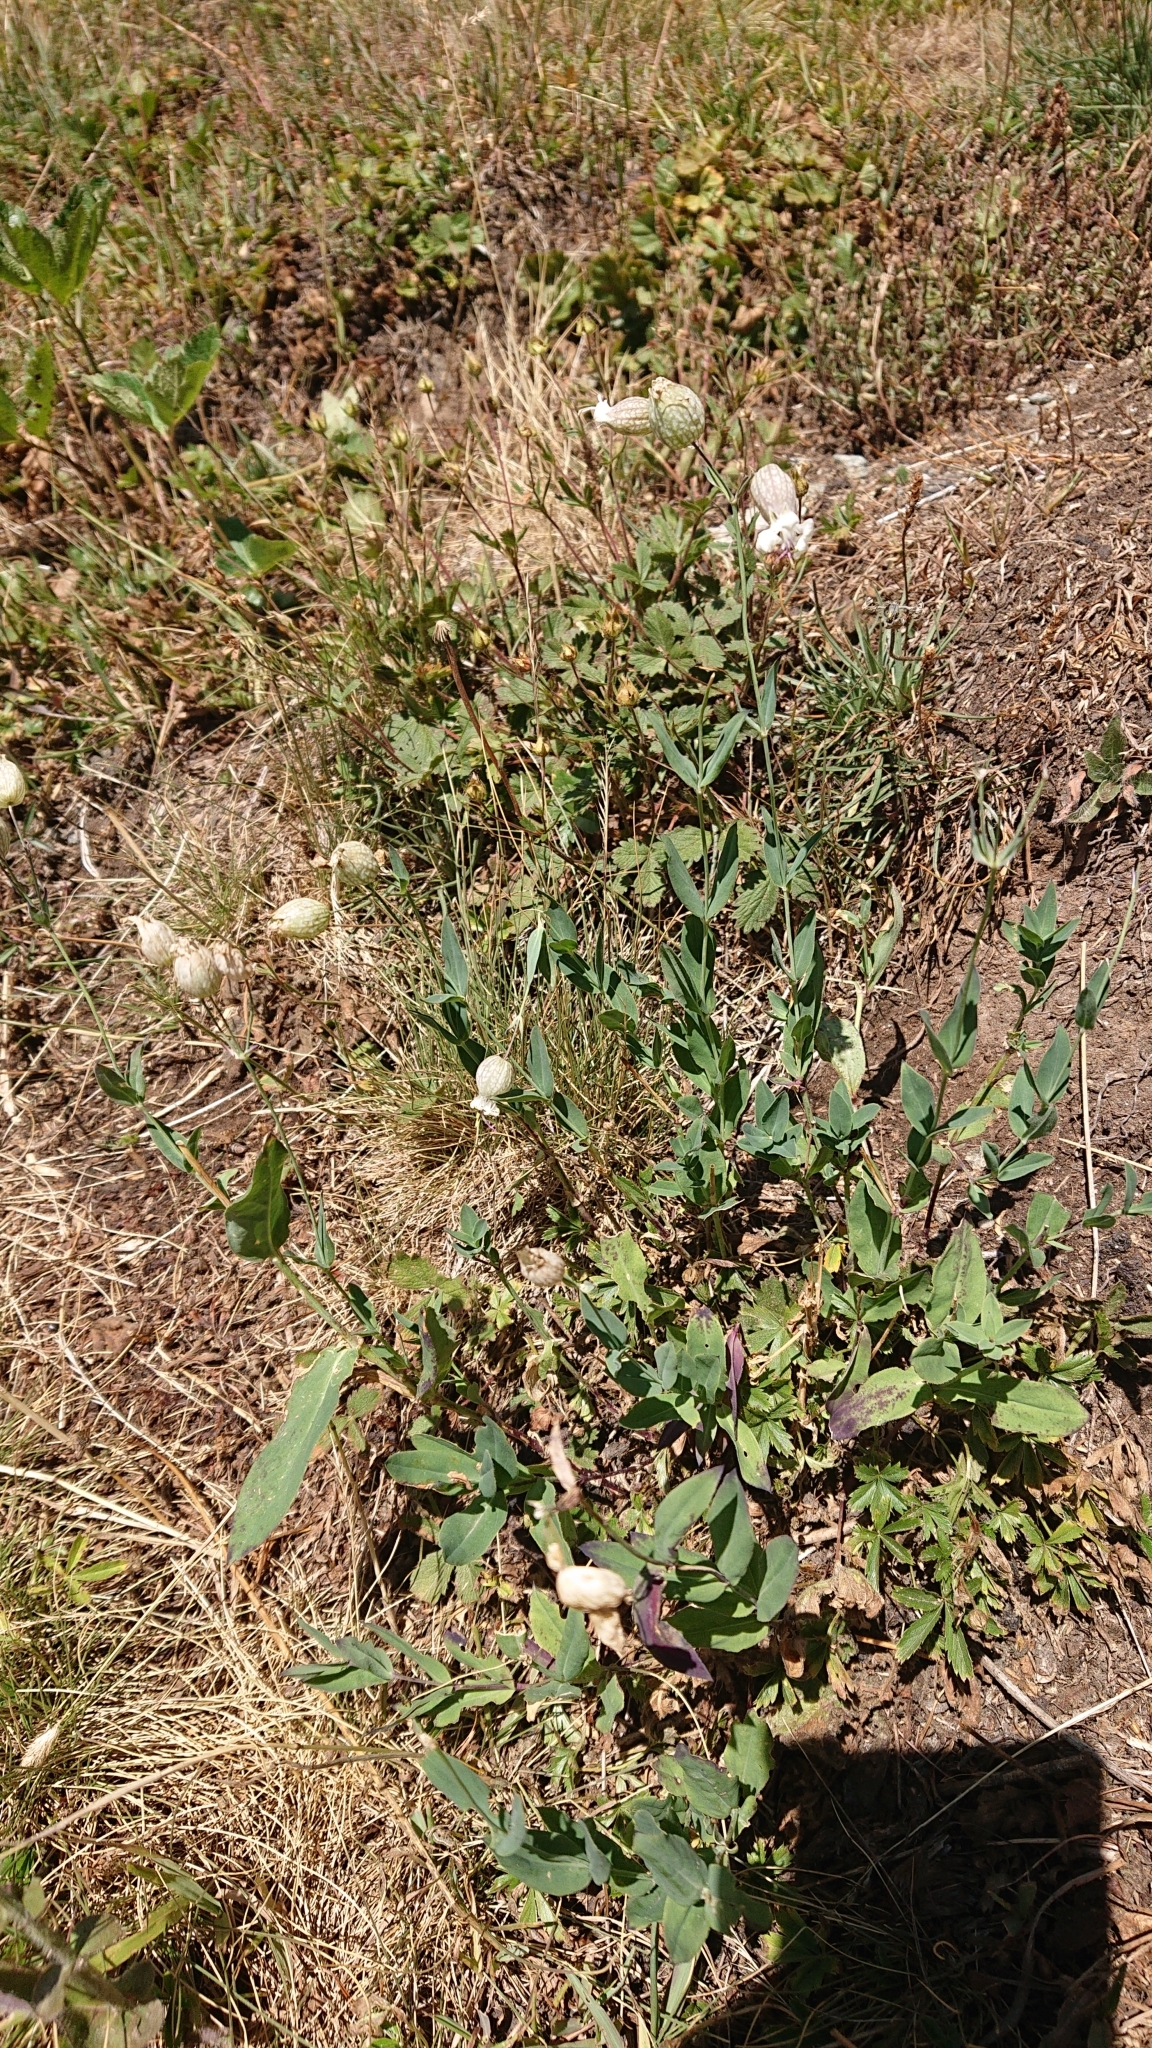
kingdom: Plantae
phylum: Tracheophyta
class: Magnoliopsida
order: Caryophyllales
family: Caryophyllaceae
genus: Silene
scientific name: Silene vulgaris
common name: Bladder campion
